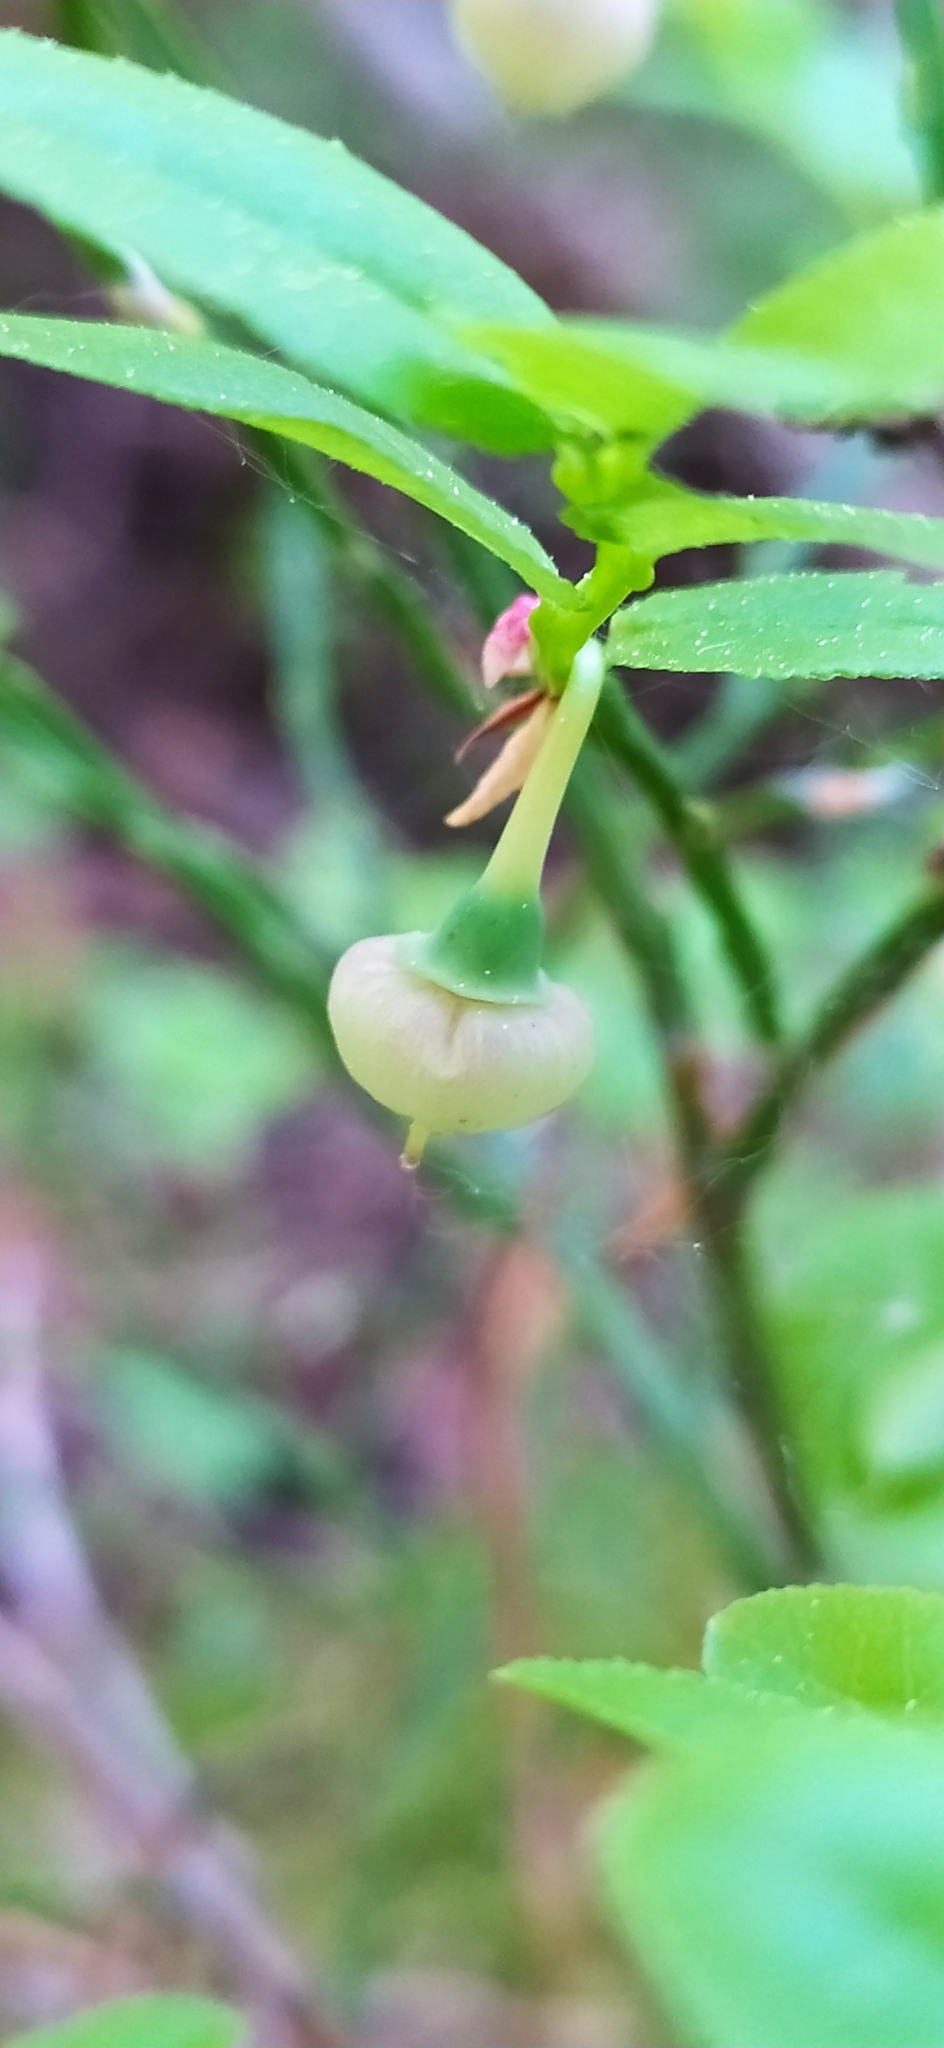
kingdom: Plantae
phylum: Tracheophyta
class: Magnoliopsida
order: Ericales
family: Ericaceae
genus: Vaccinium
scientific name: Vaccinium myrtillus
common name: Bilberry
